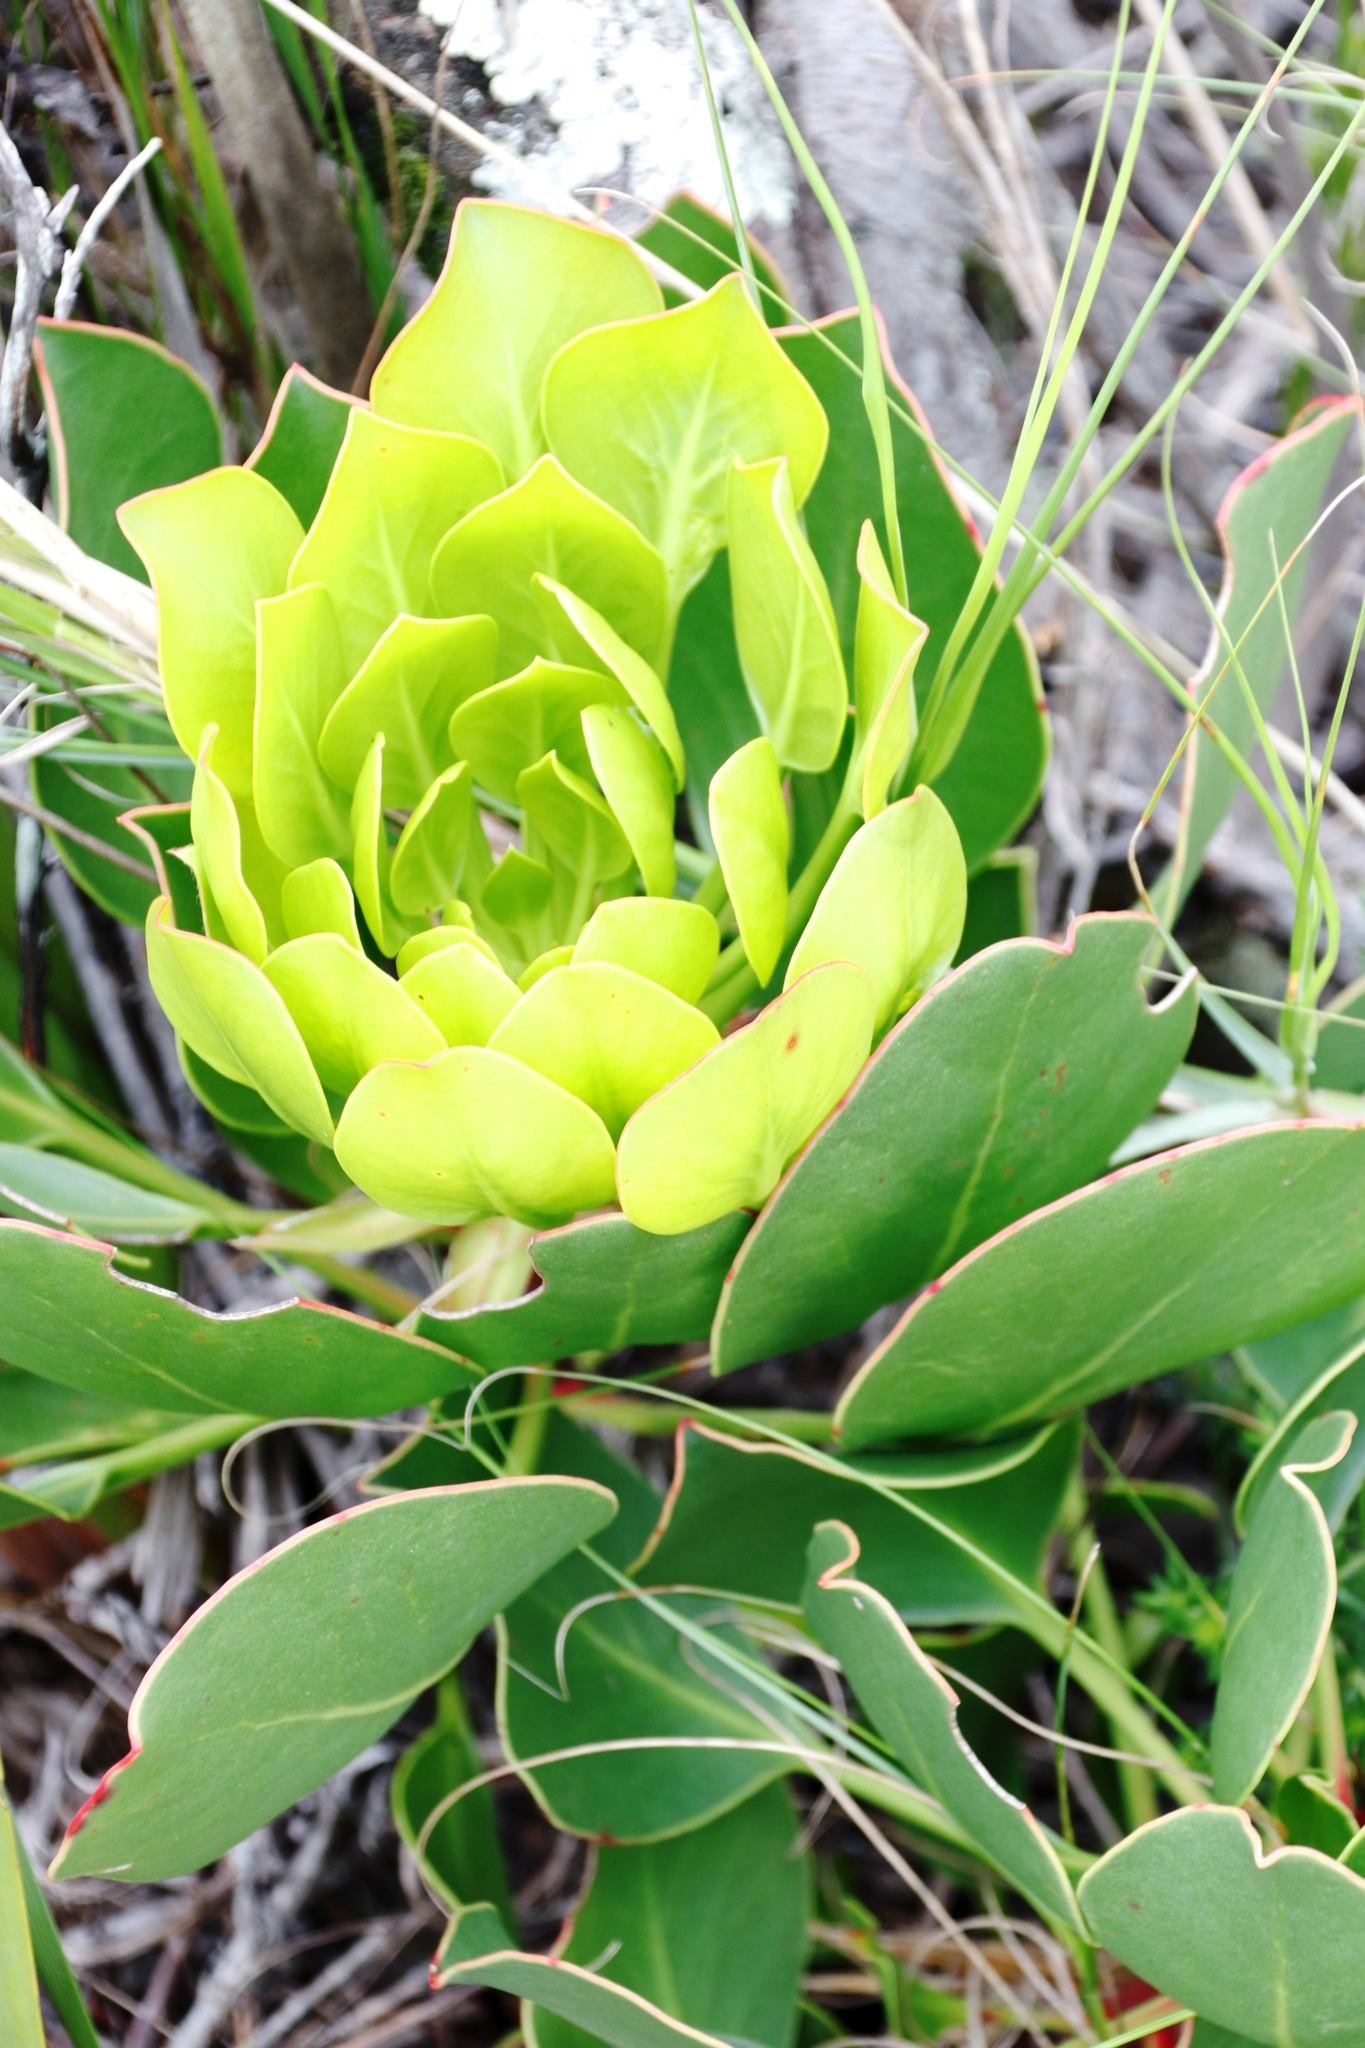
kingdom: Plantae
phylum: Tracheophyta
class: Magnoliopsida
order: Proteales
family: Proteaceae
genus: Protea
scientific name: Protea cynaroides
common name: King protea
